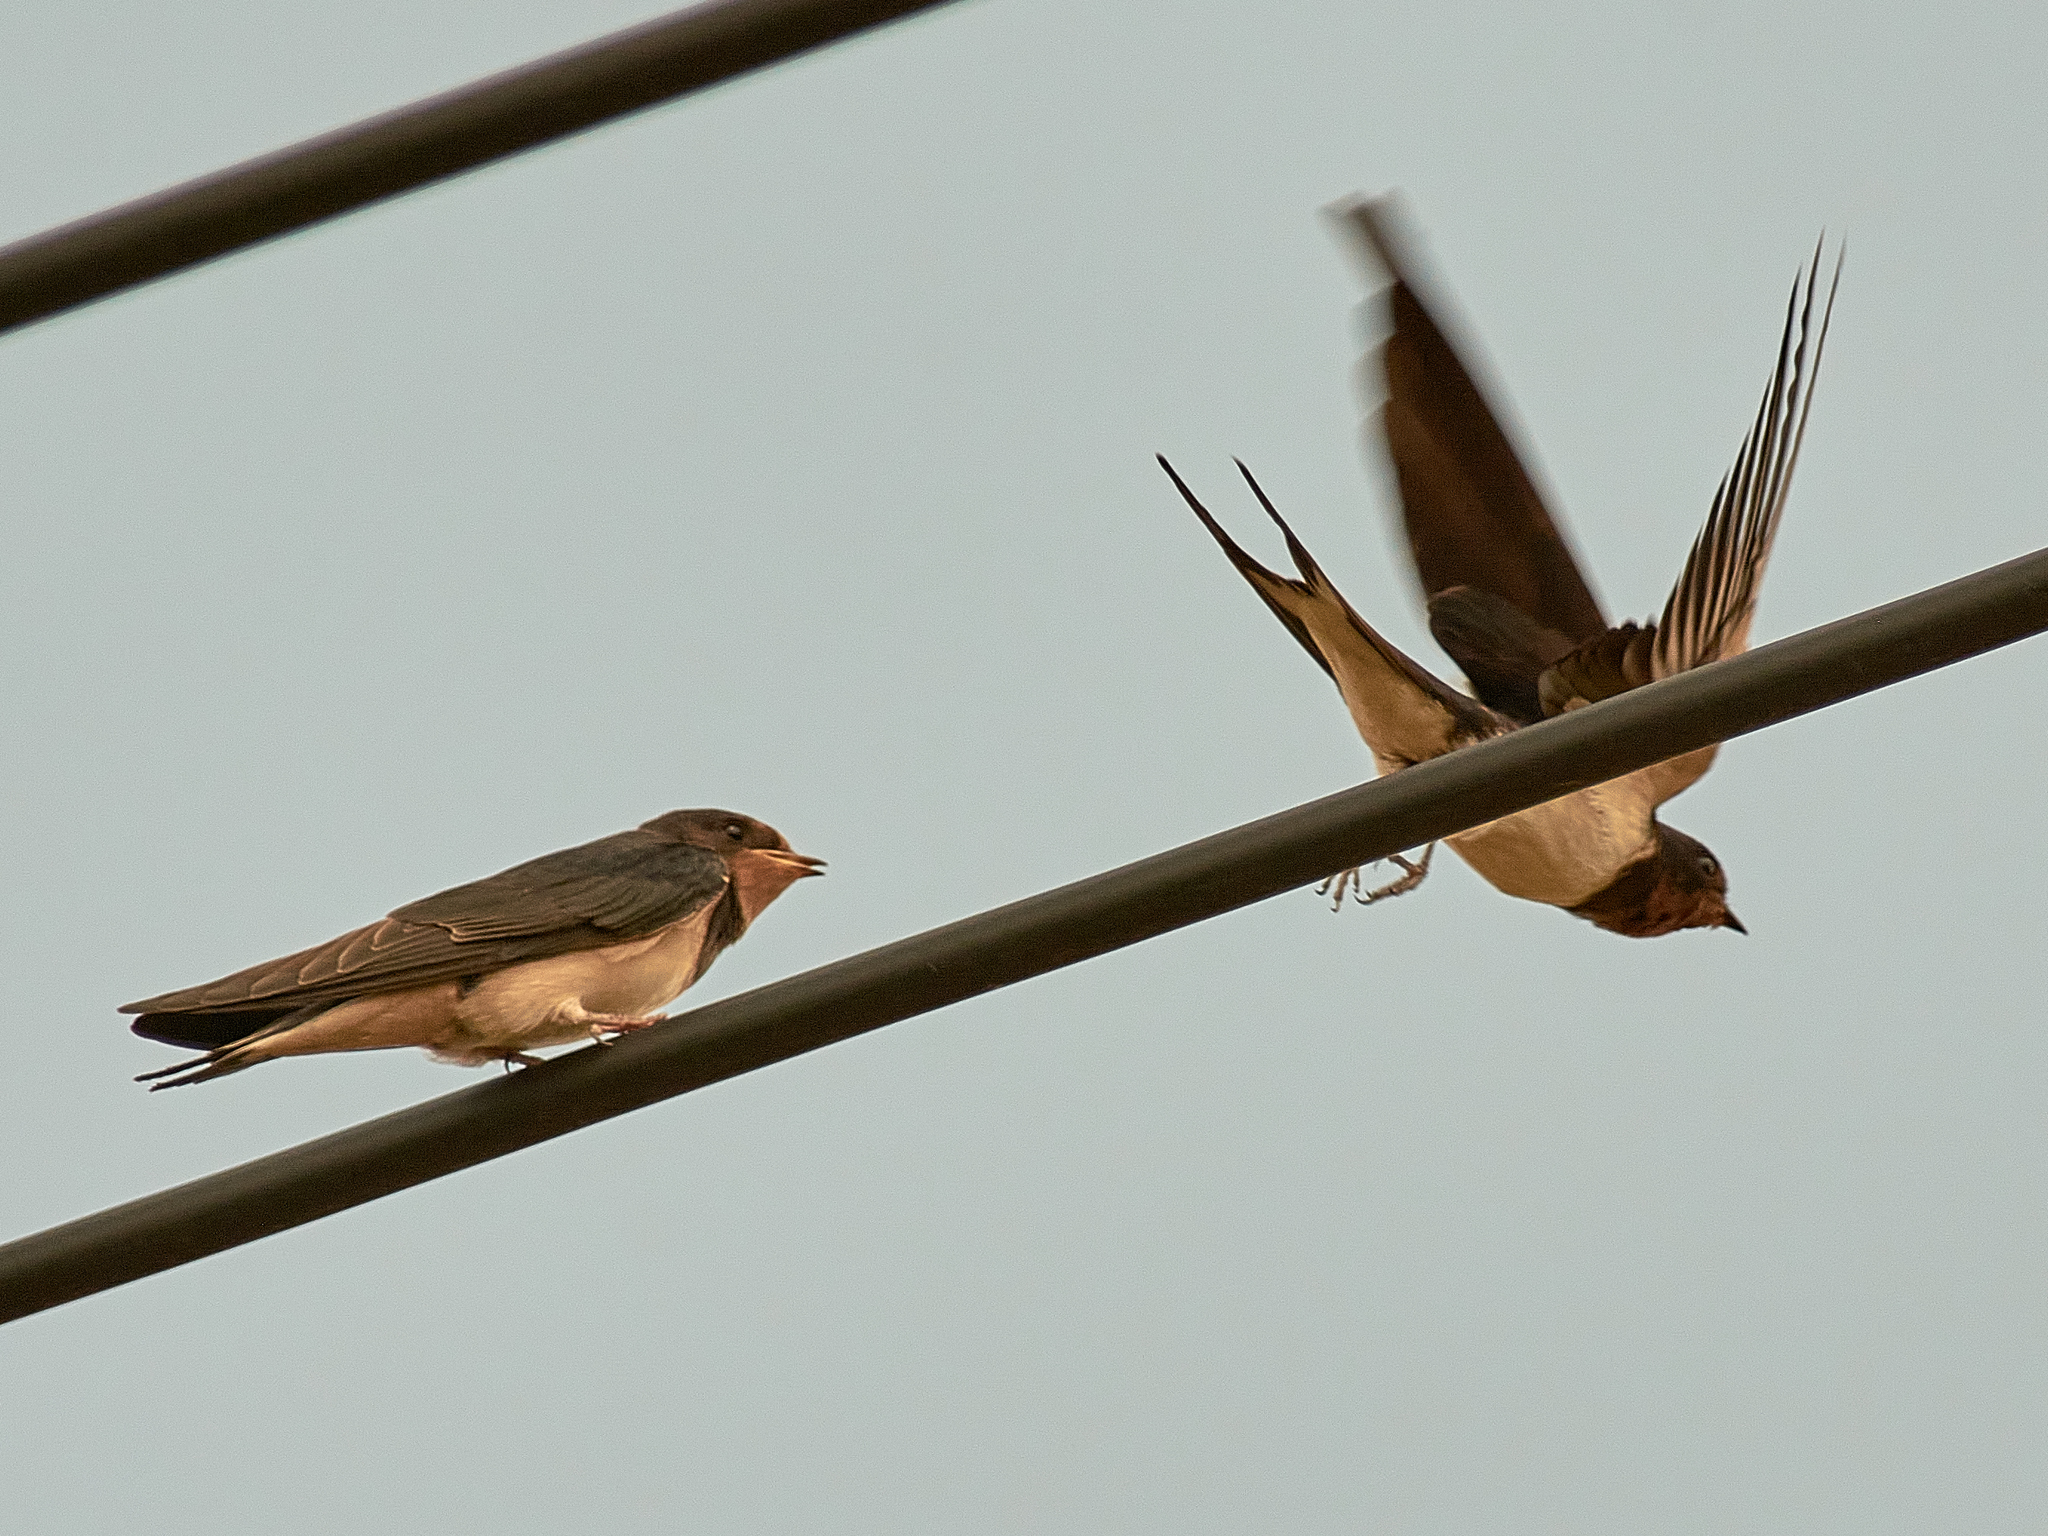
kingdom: Animalia
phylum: Chordata
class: Aves
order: Passeriformes
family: Hirundinidae
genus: Hirundo
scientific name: Hirundo rustica
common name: Barn swallow
